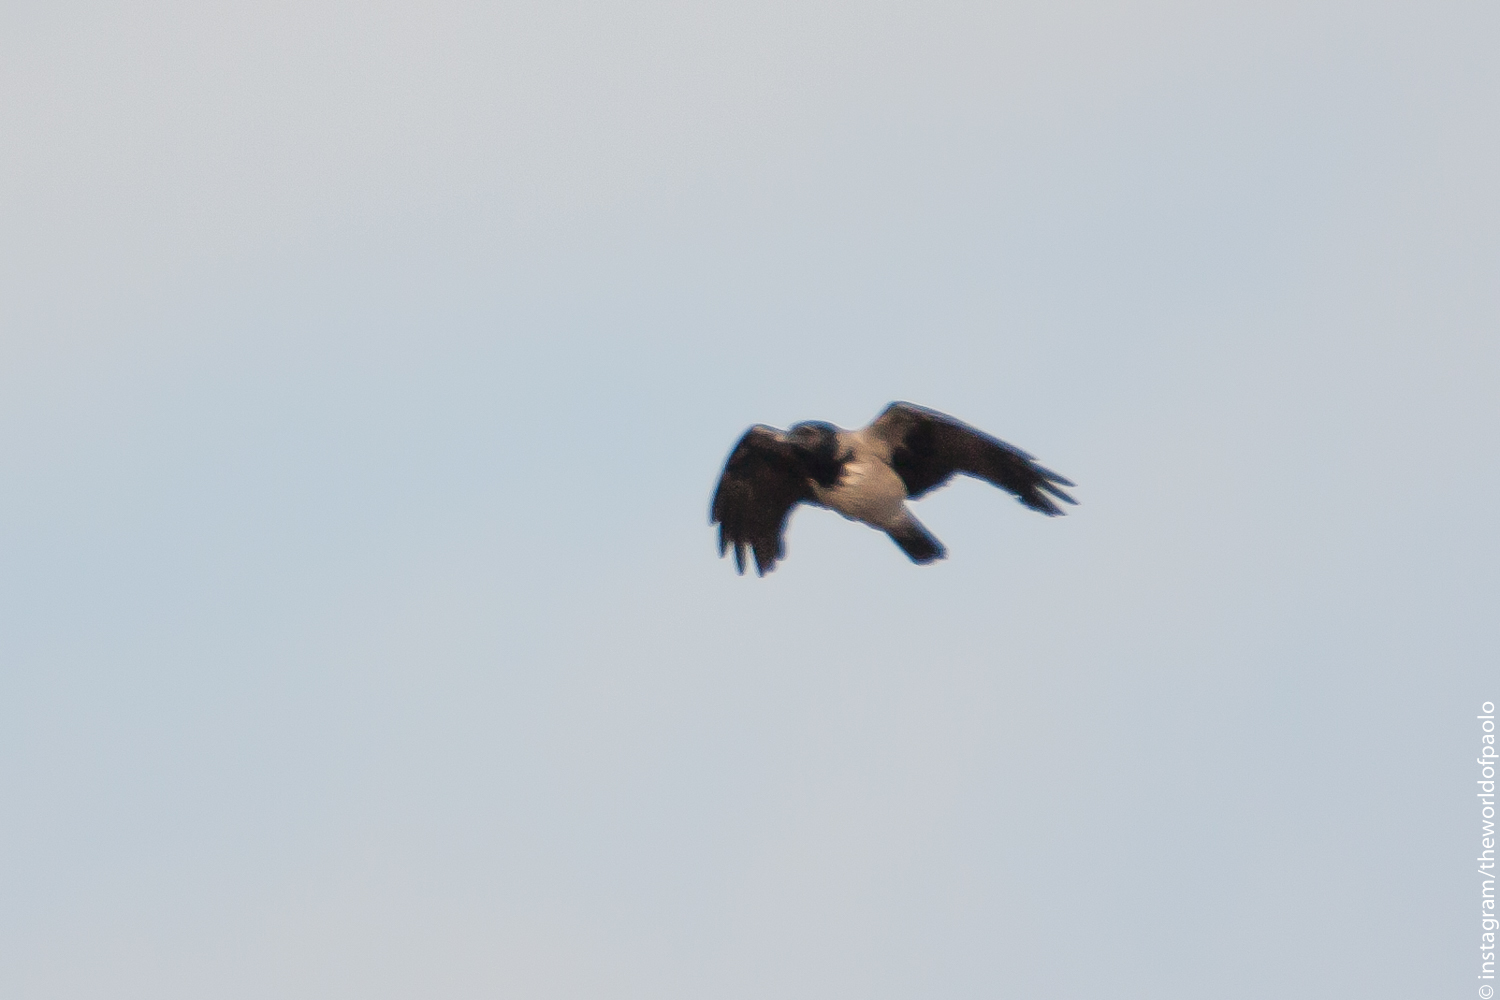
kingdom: Animalia
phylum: Chordata
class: Aves
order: Passeriformes
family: Corvidae
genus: Corvus
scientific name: Corvus cornix
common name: Hooded crow
